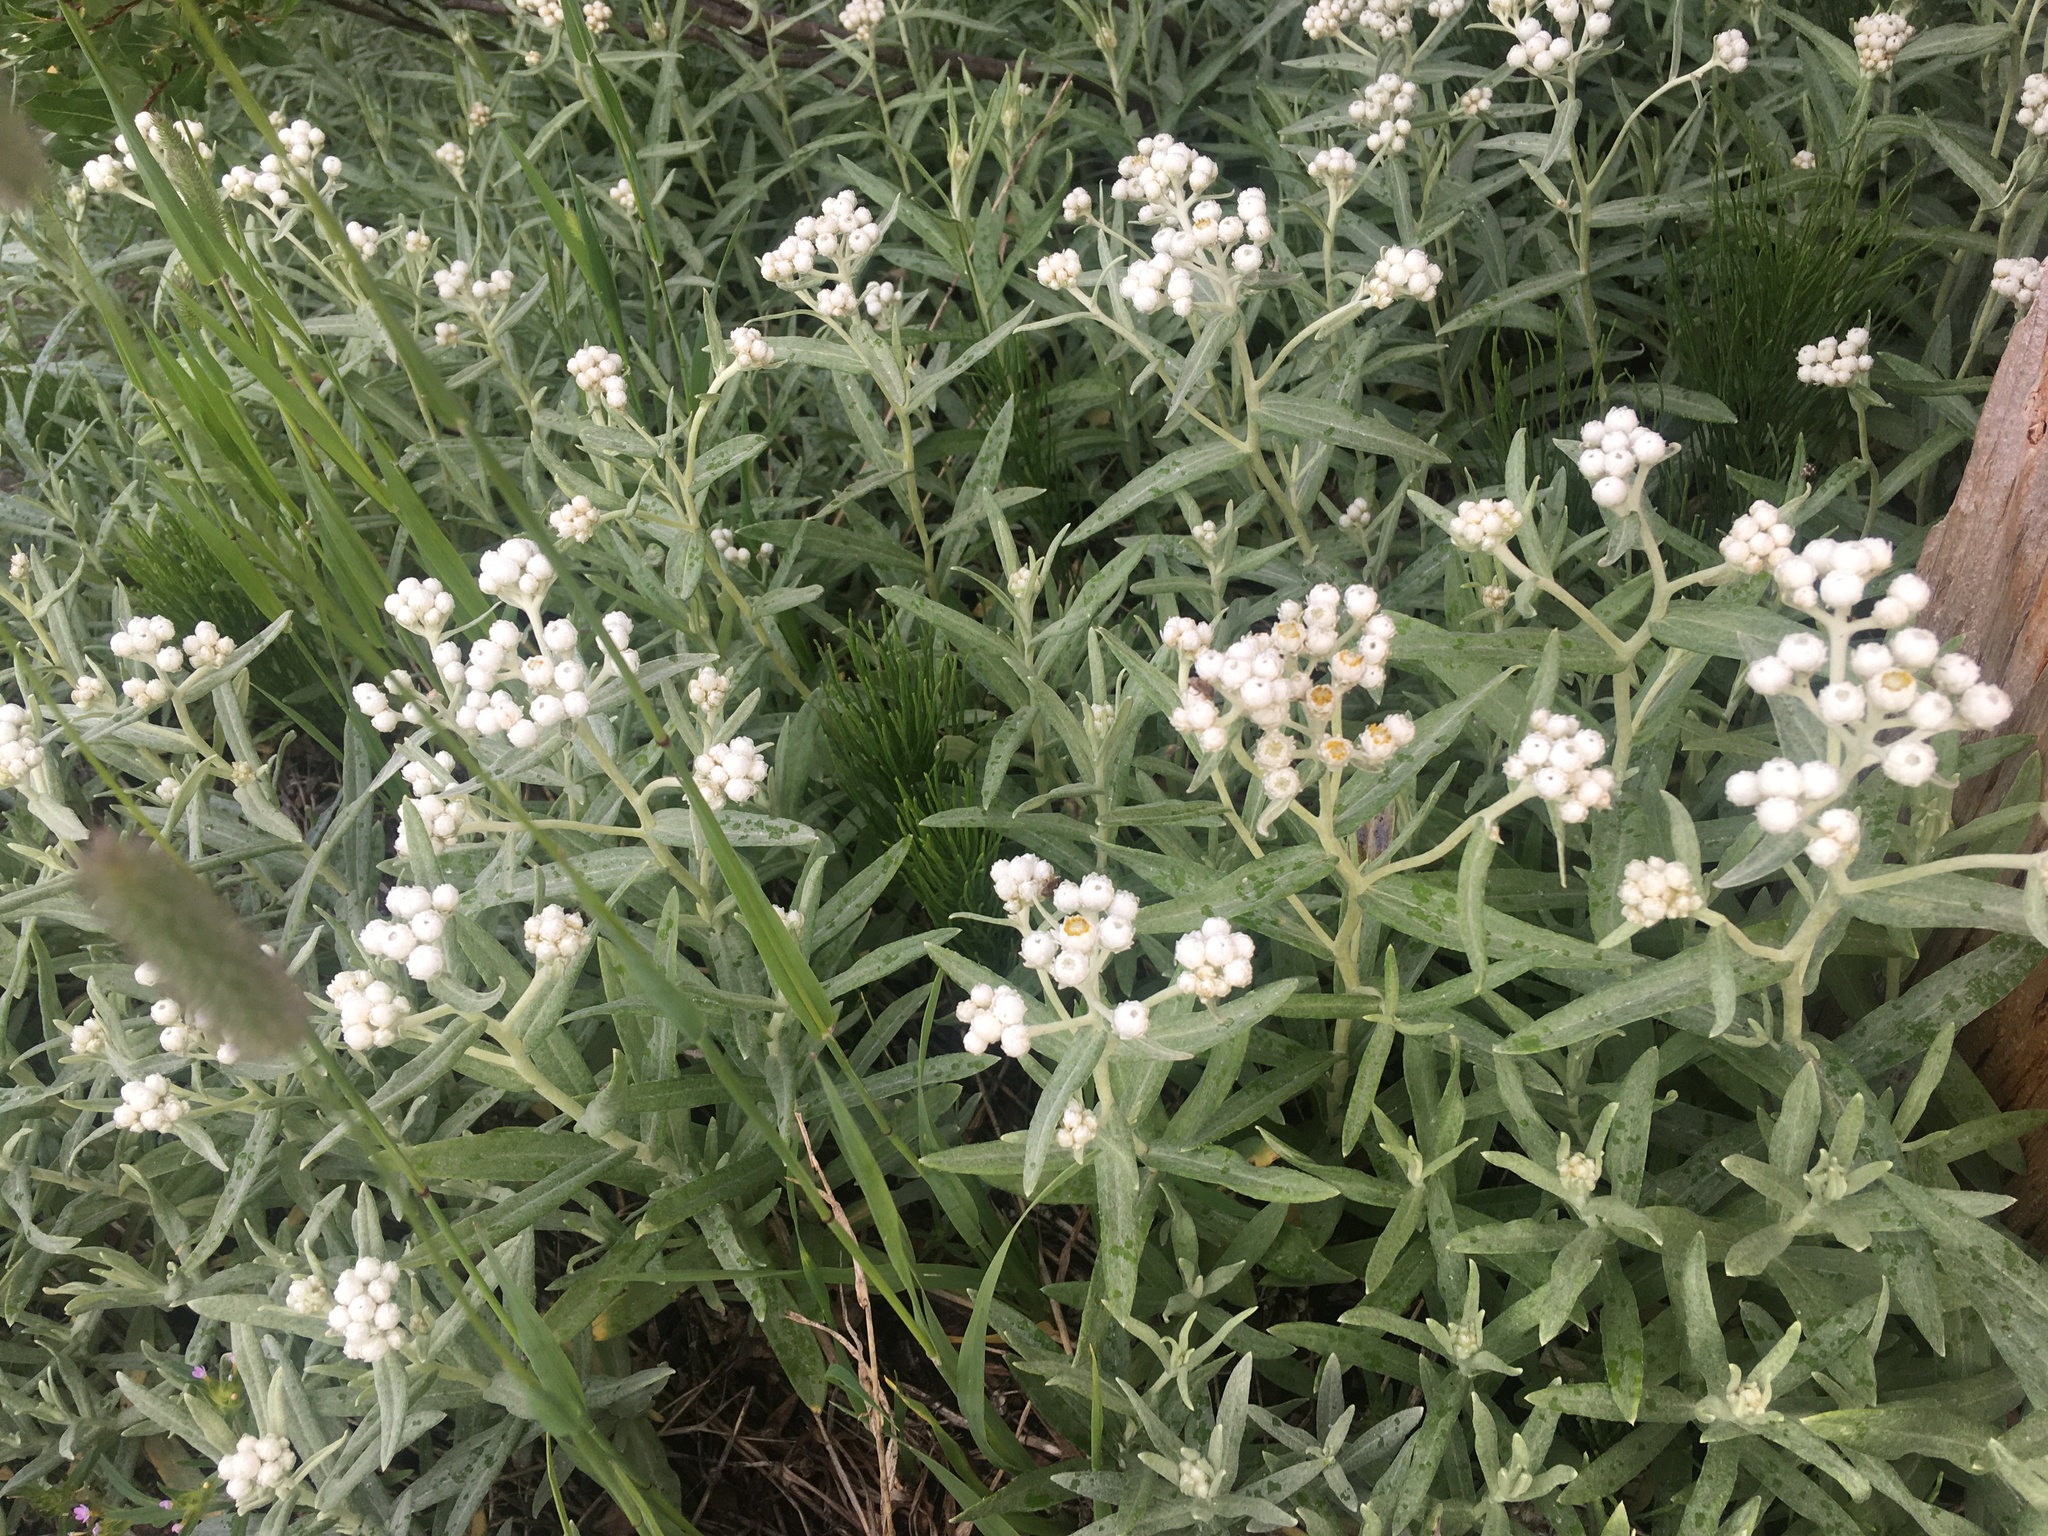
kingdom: Plantae
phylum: Tracheophyta
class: Magnoliopsida
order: Asterales
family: Asteraceae
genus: Anaphalis
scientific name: Anaphalis margaritacea
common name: Pearly everlasting
